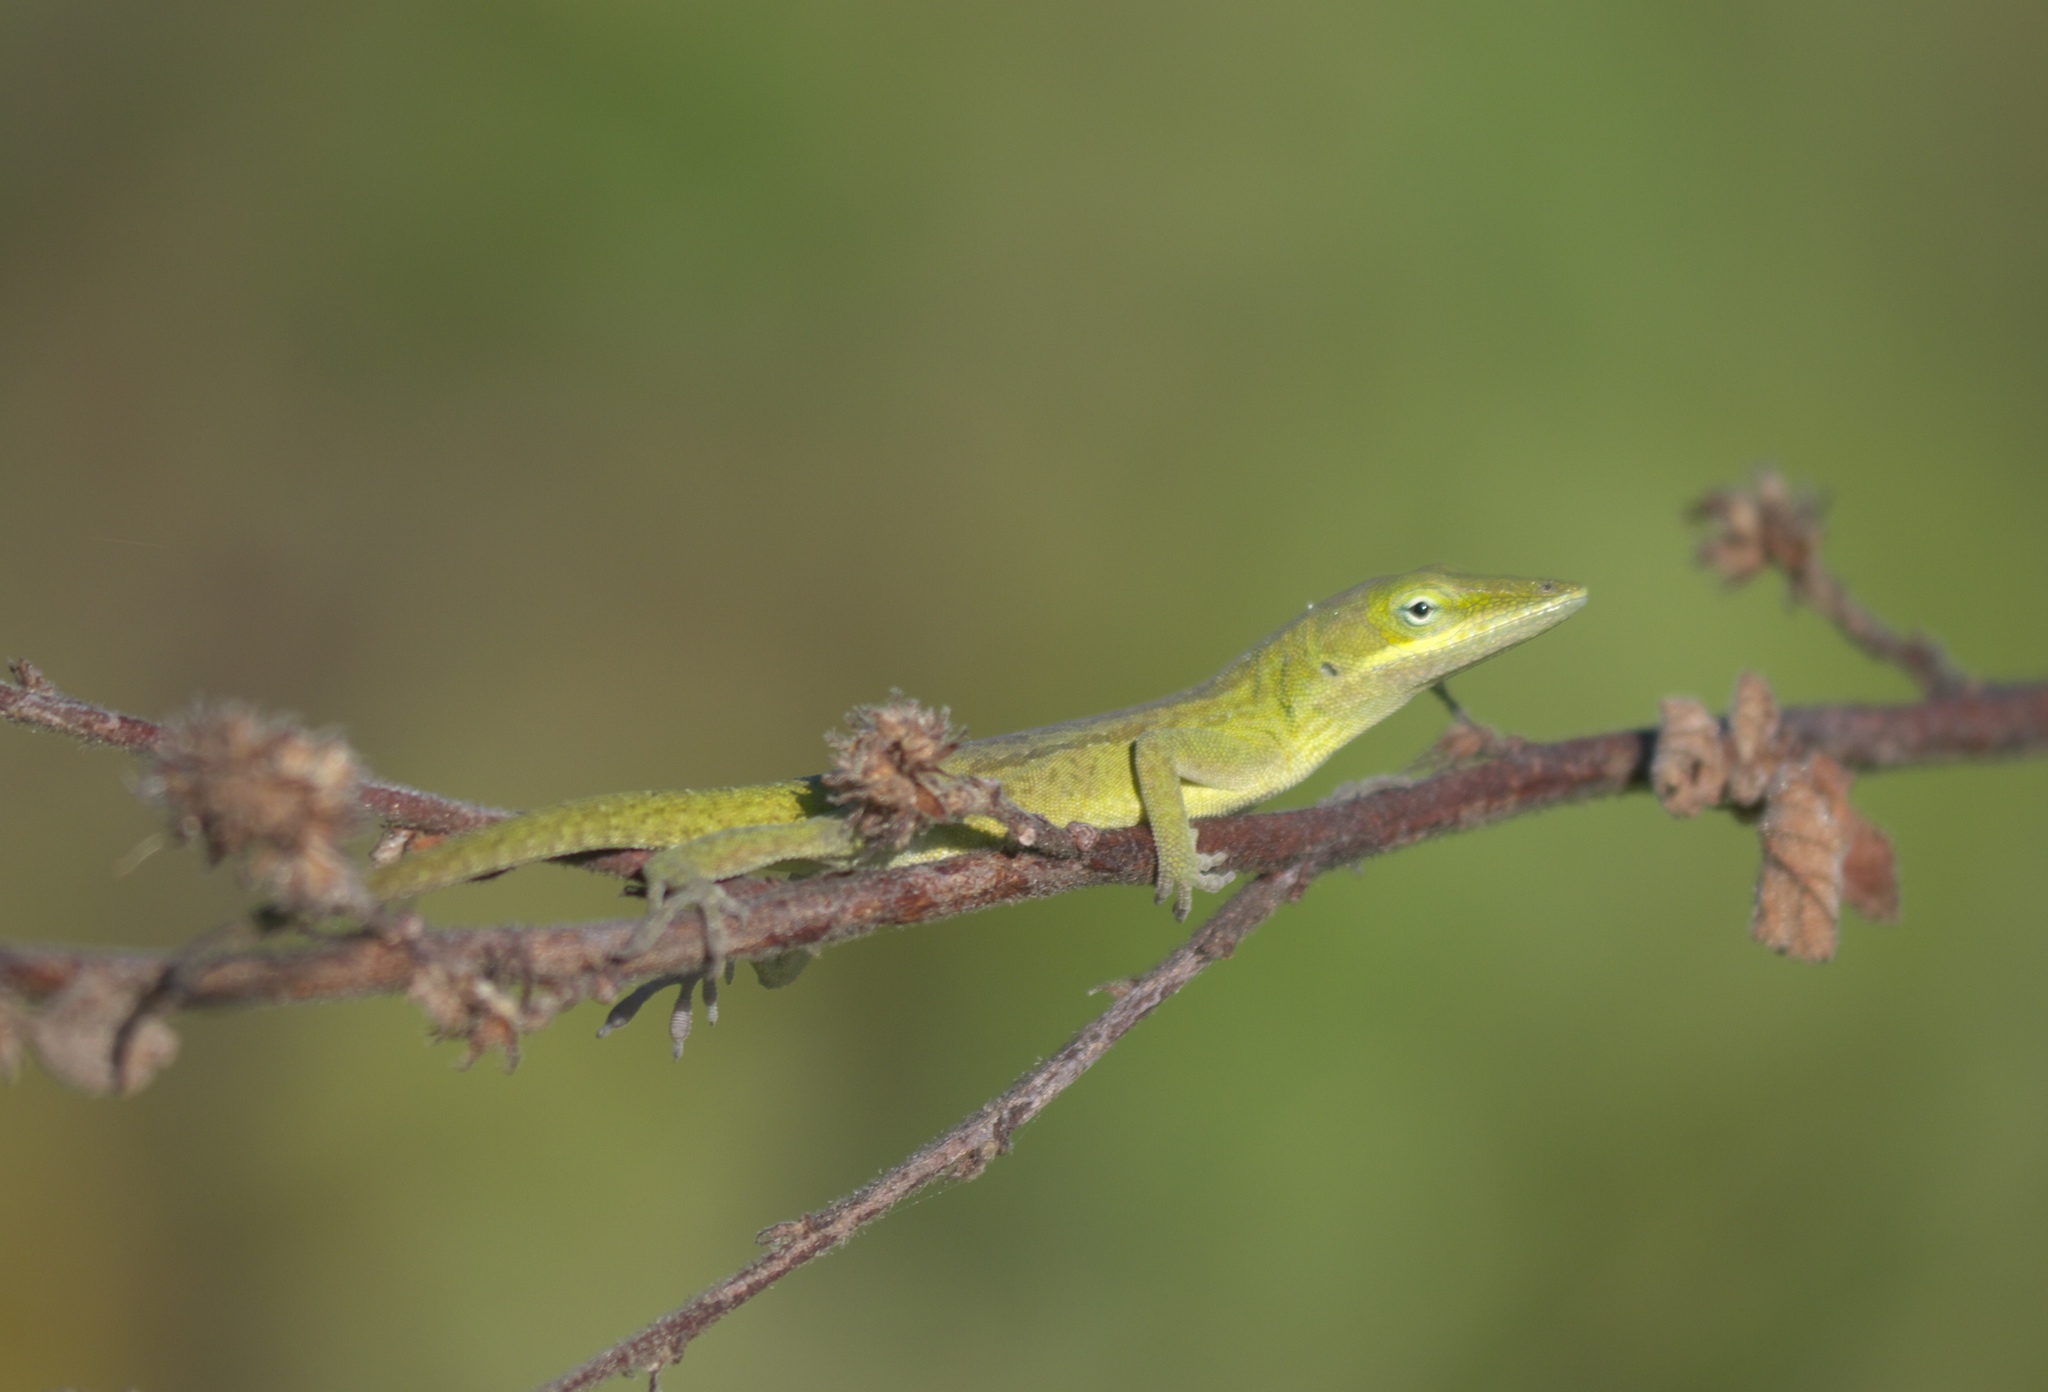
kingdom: Animalia
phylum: Chordata
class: Squamata
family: Dactyloidae
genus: Anolis
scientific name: Anolis carolinensis
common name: Green anole
